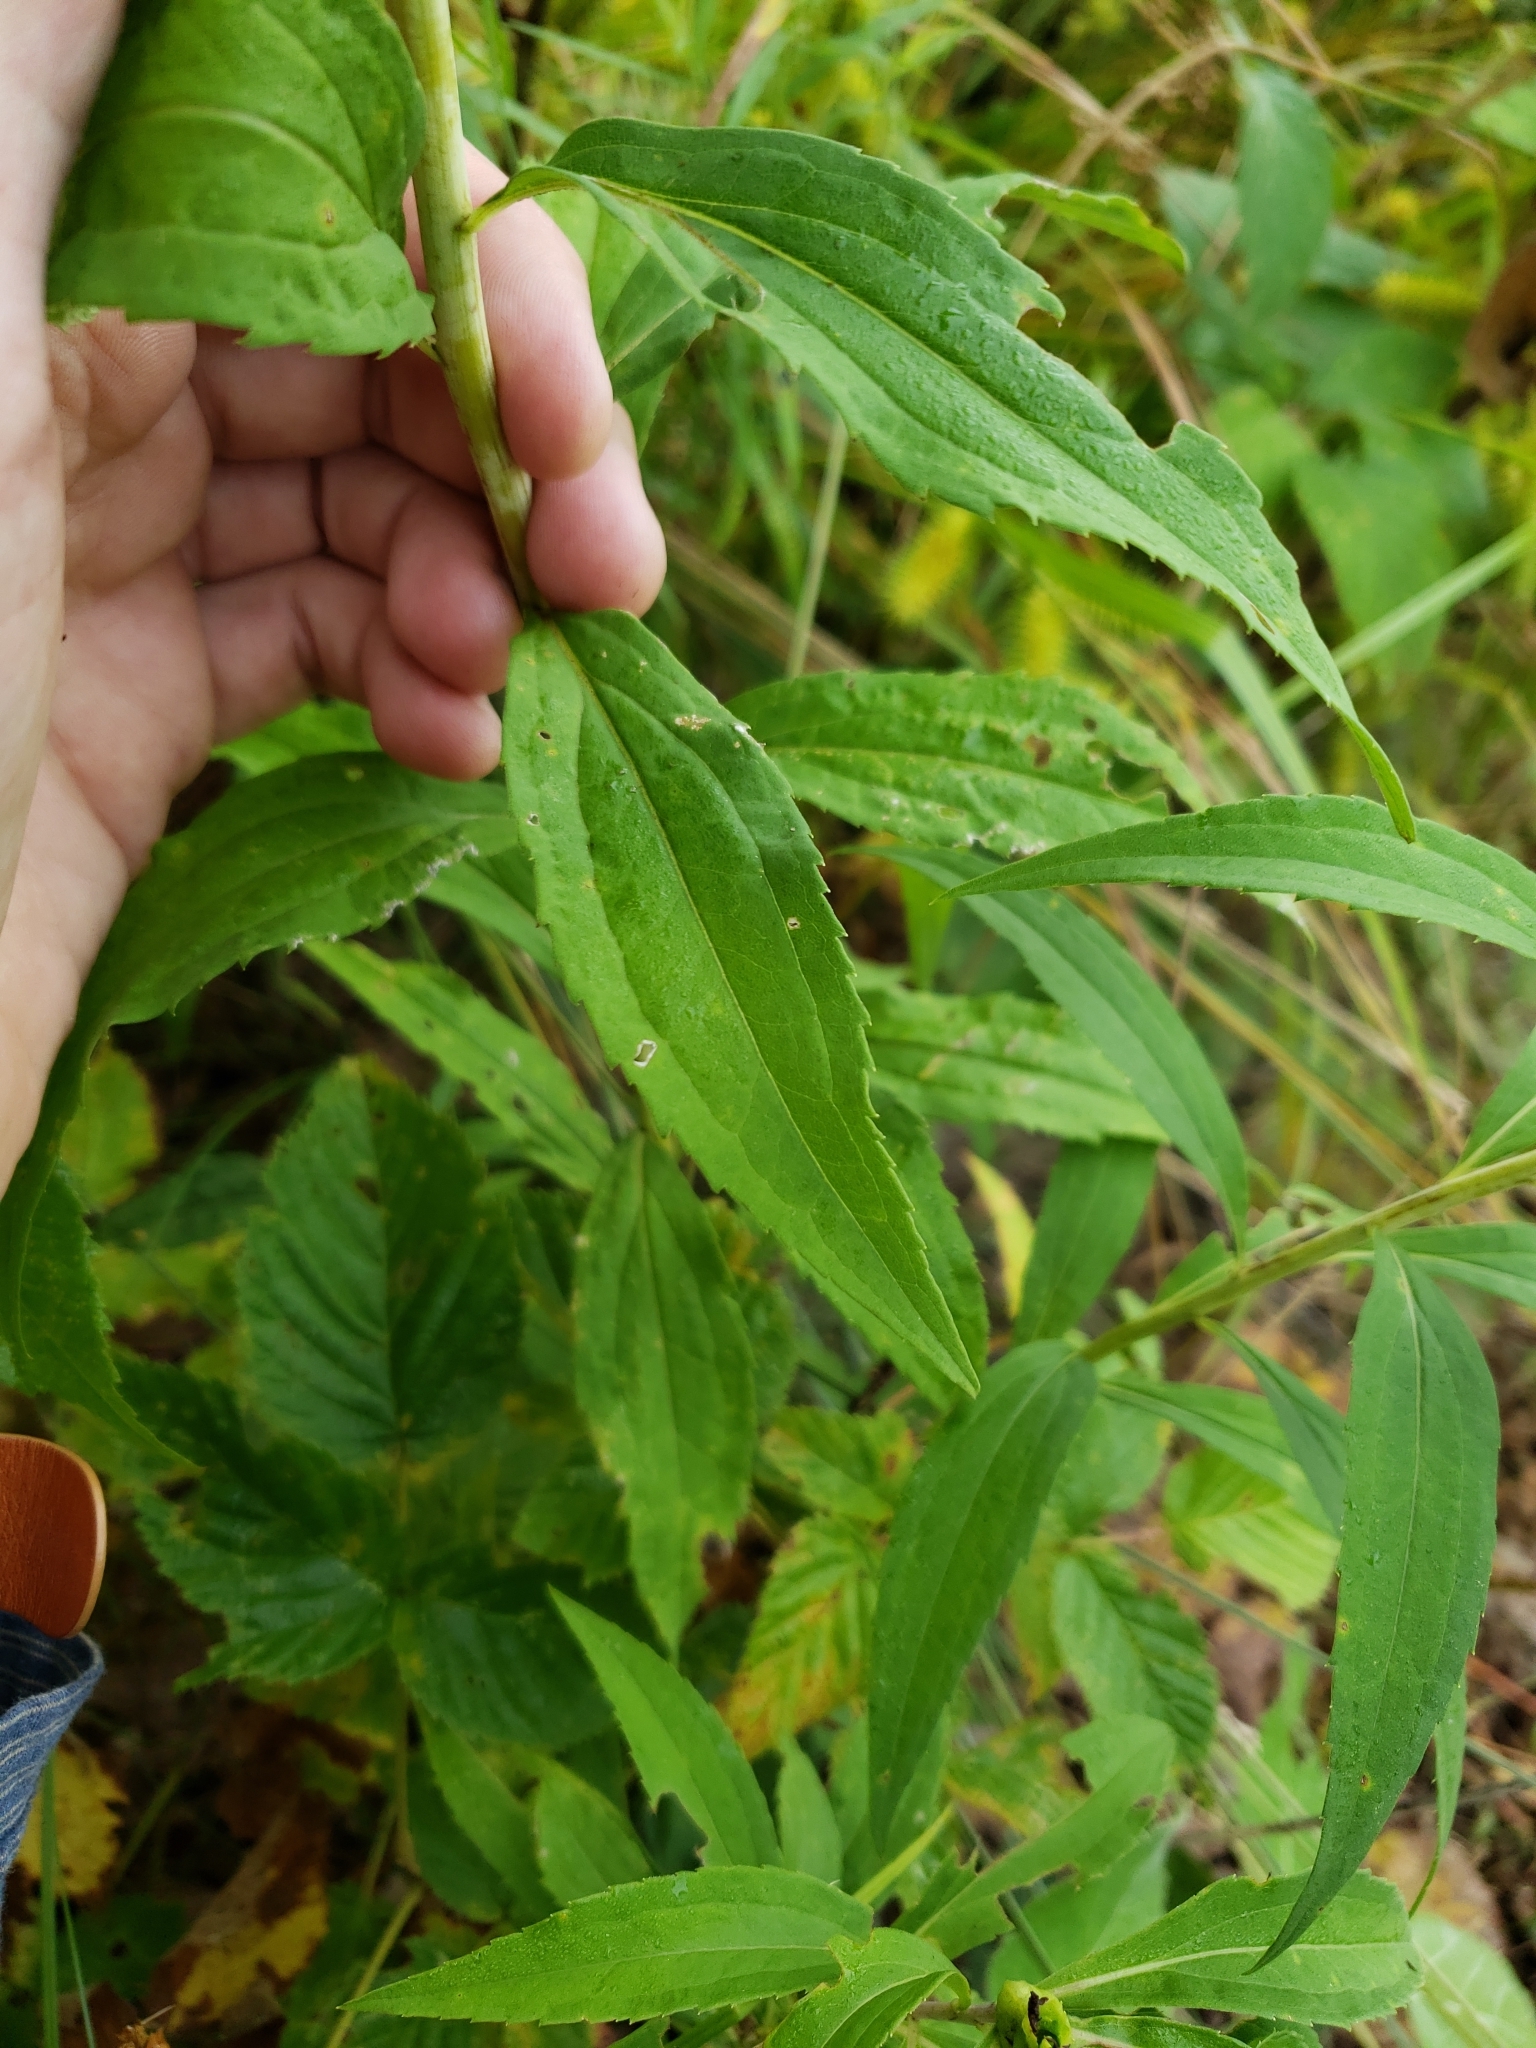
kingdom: Plantae
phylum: Tracheophyta
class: Magnoliopsida
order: Asterales
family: Asteraceae
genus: Solidago
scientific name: Solidago gigantea
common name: Giant goldenrod
